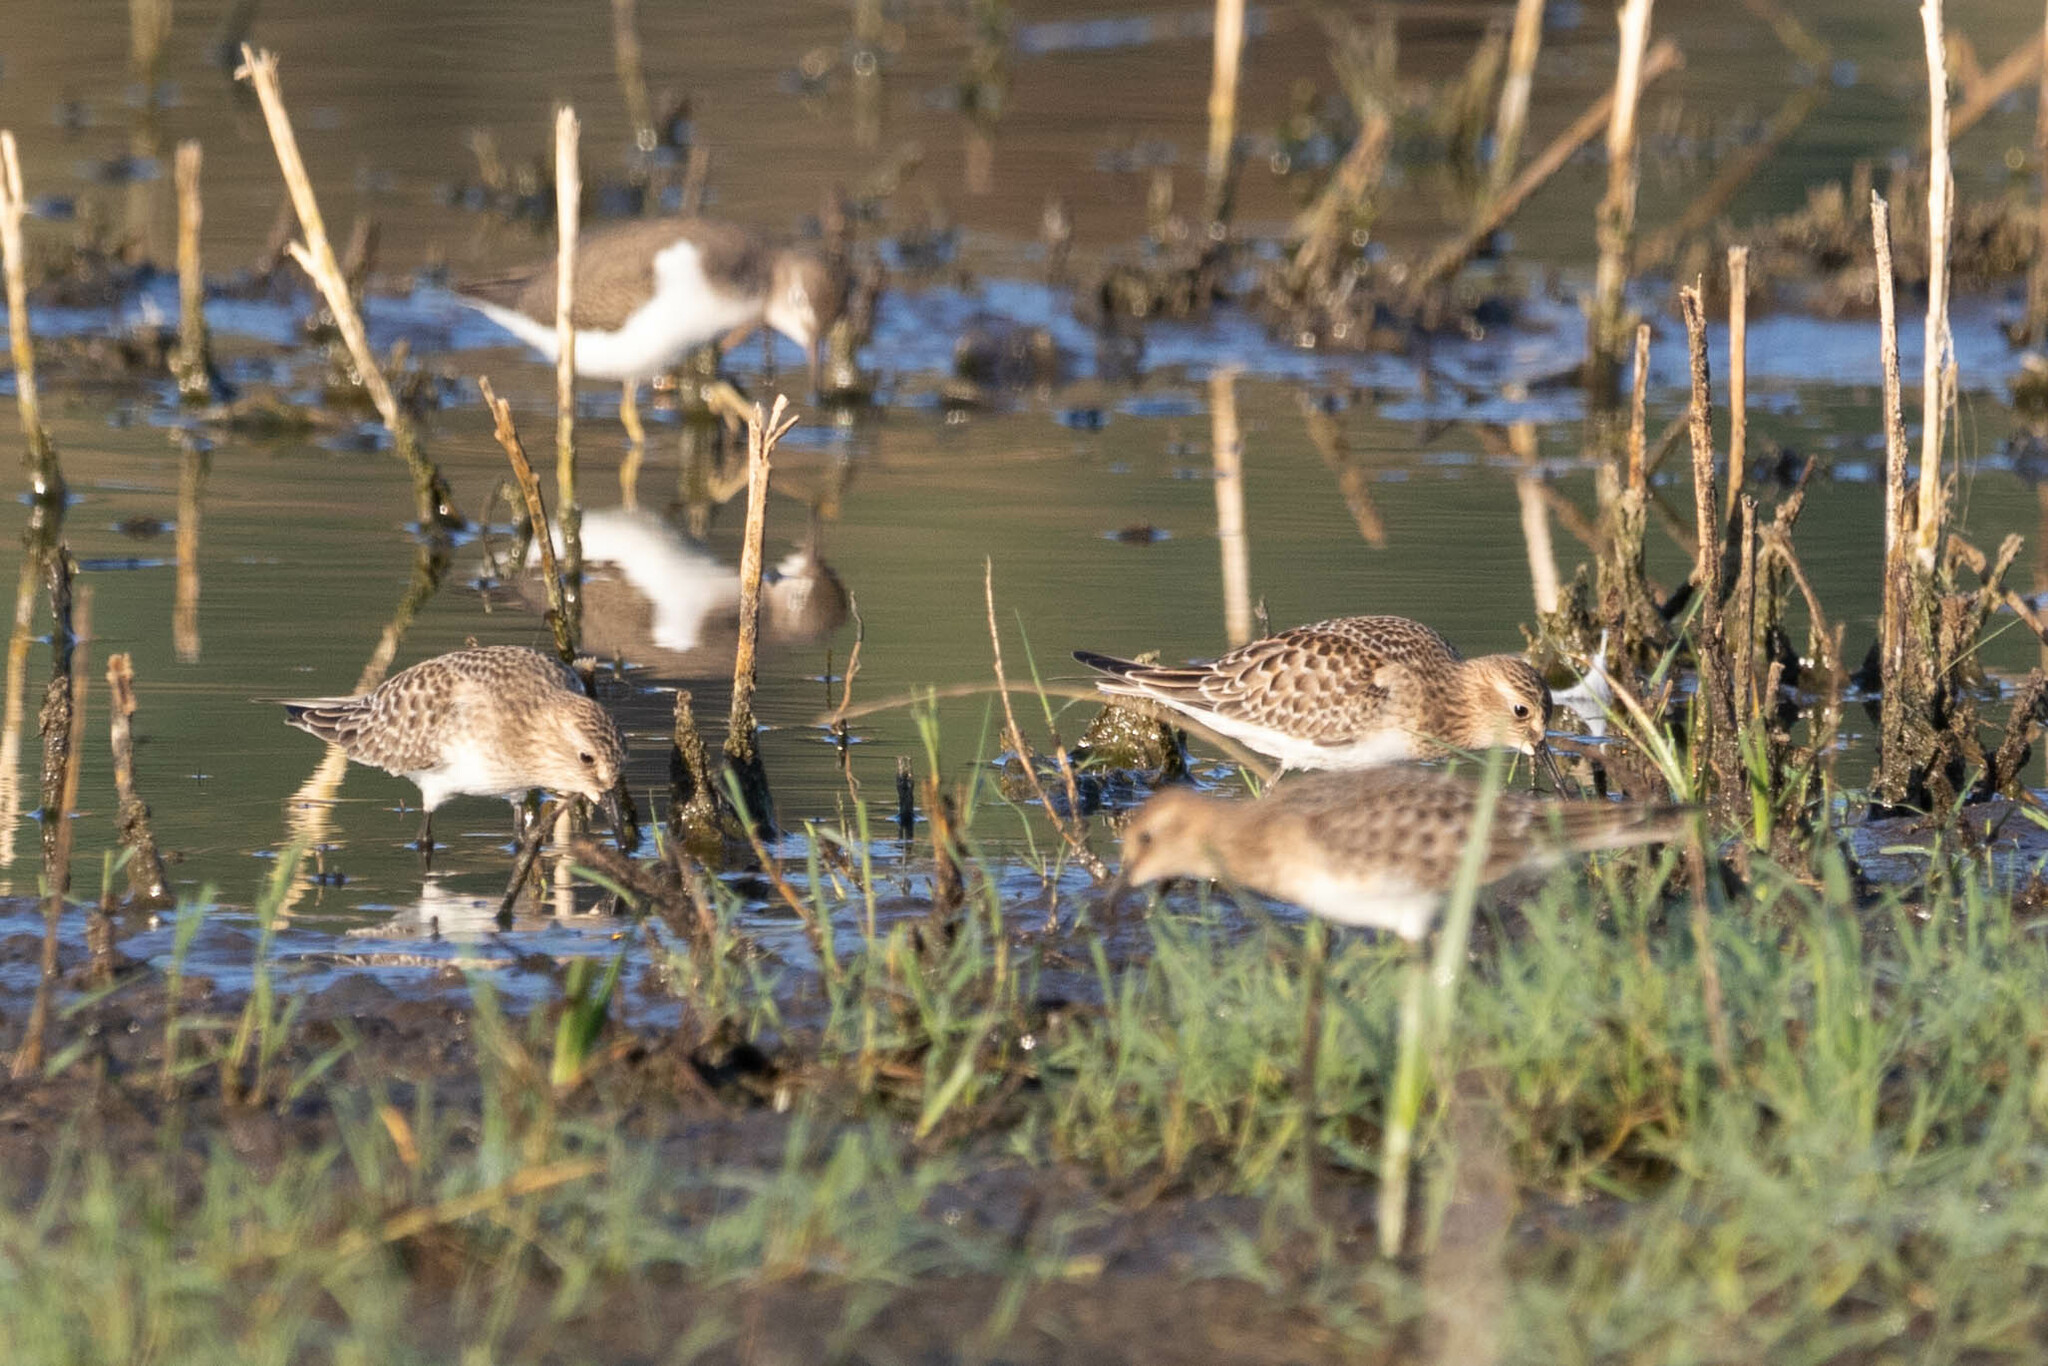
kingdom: Animalia
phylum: Chordata
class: Aves
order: Charadriiformes
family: Scolopacidae
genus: Calidris
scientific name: Calidris bairdii
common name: Baird's sandpiper
